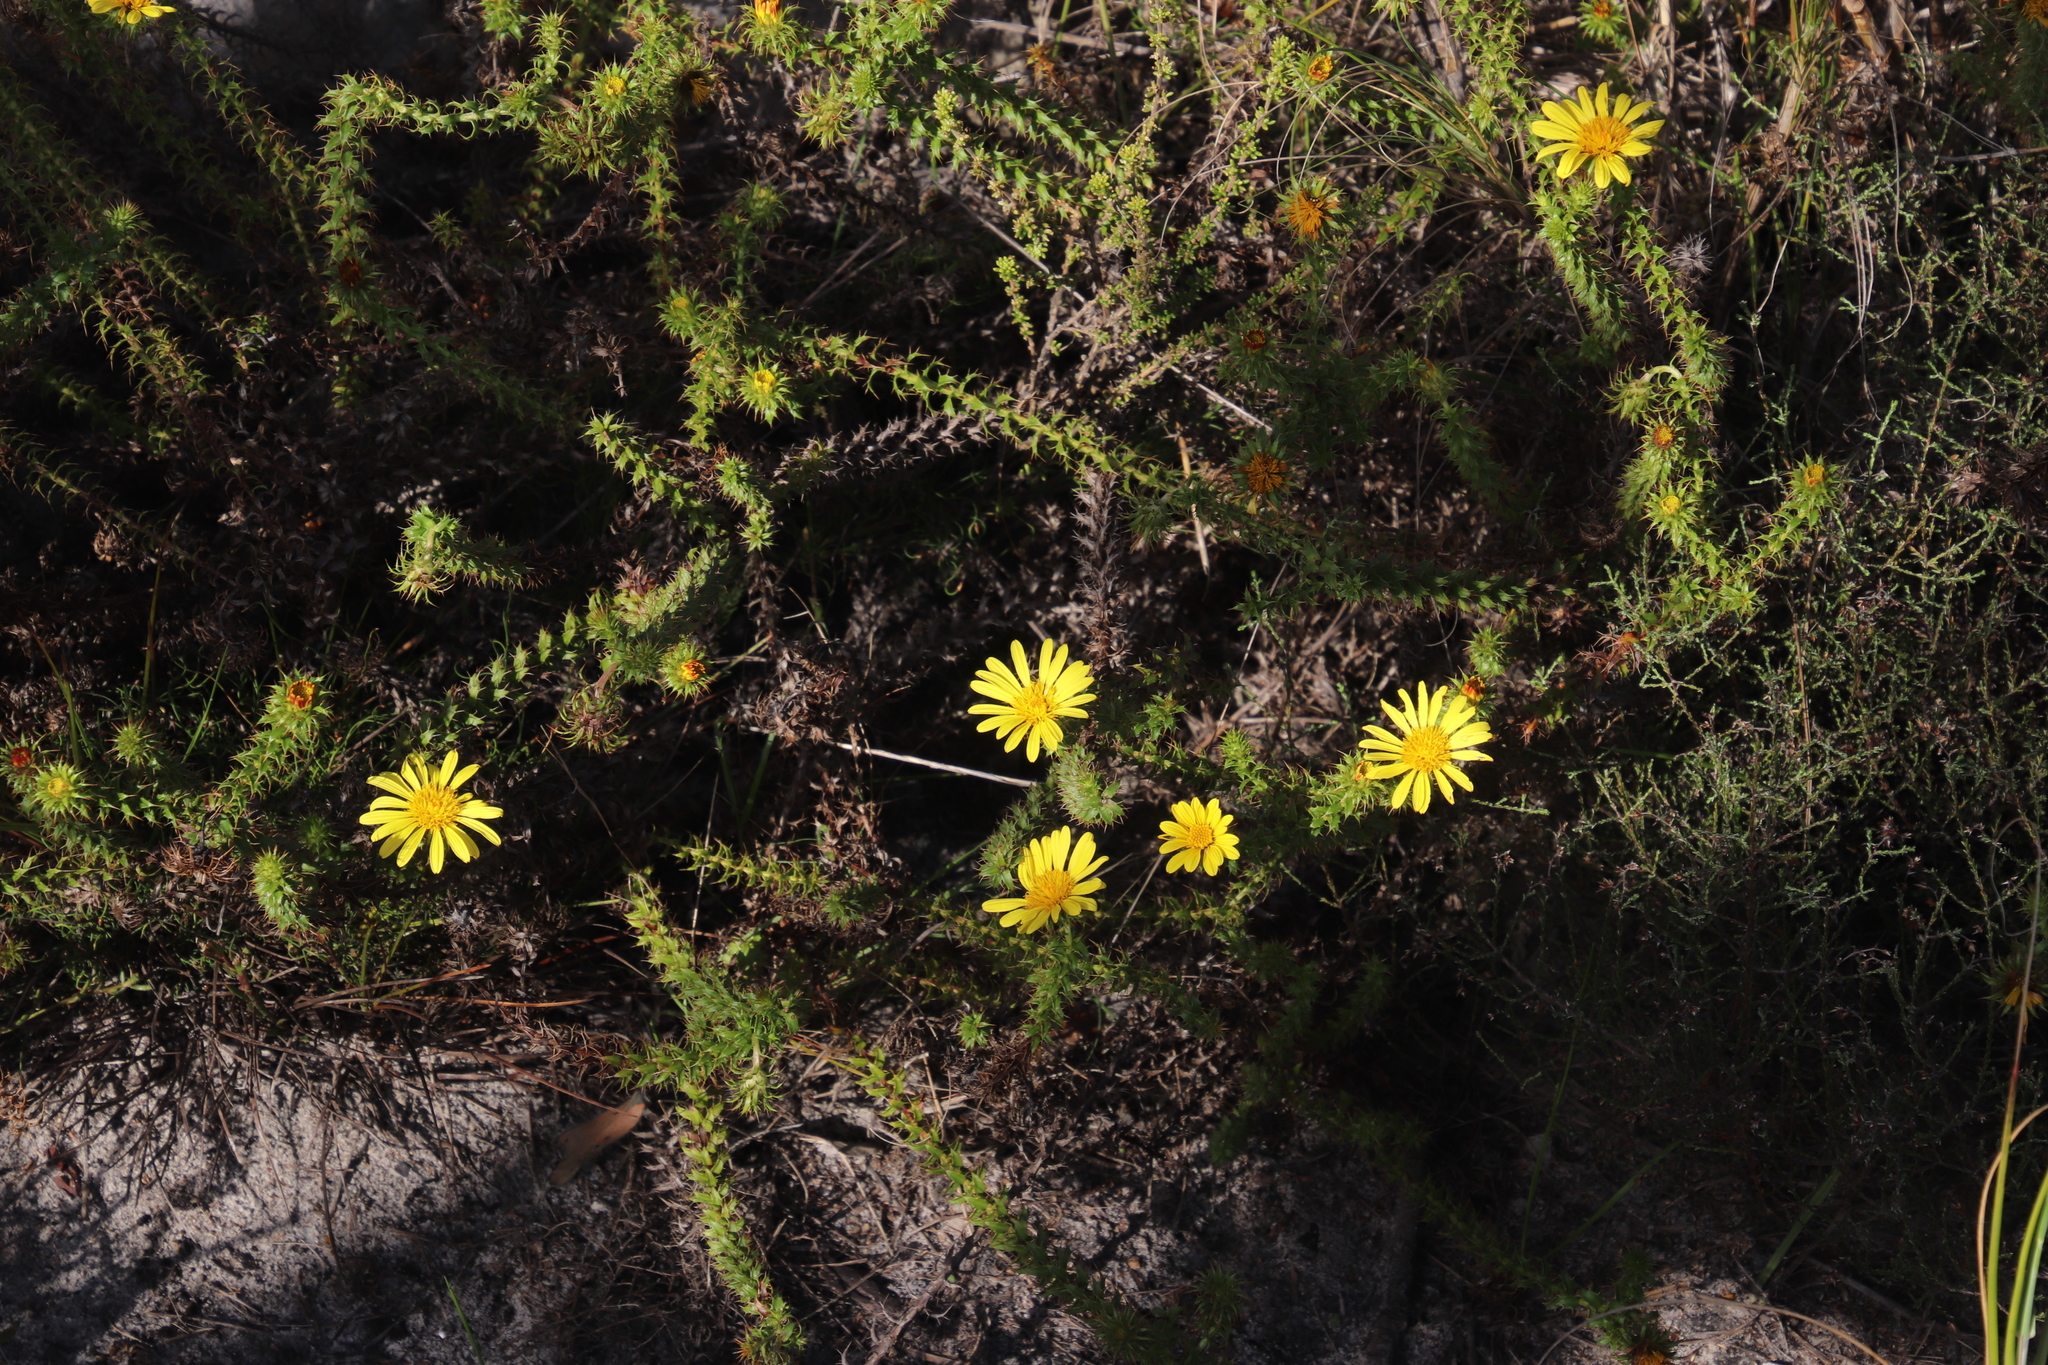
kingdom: Plantae
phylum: Tracheophyta
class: Magnoliopsida
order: Asterales
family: Asteraceae
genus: Cullumia
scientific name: Cullumia setosa
